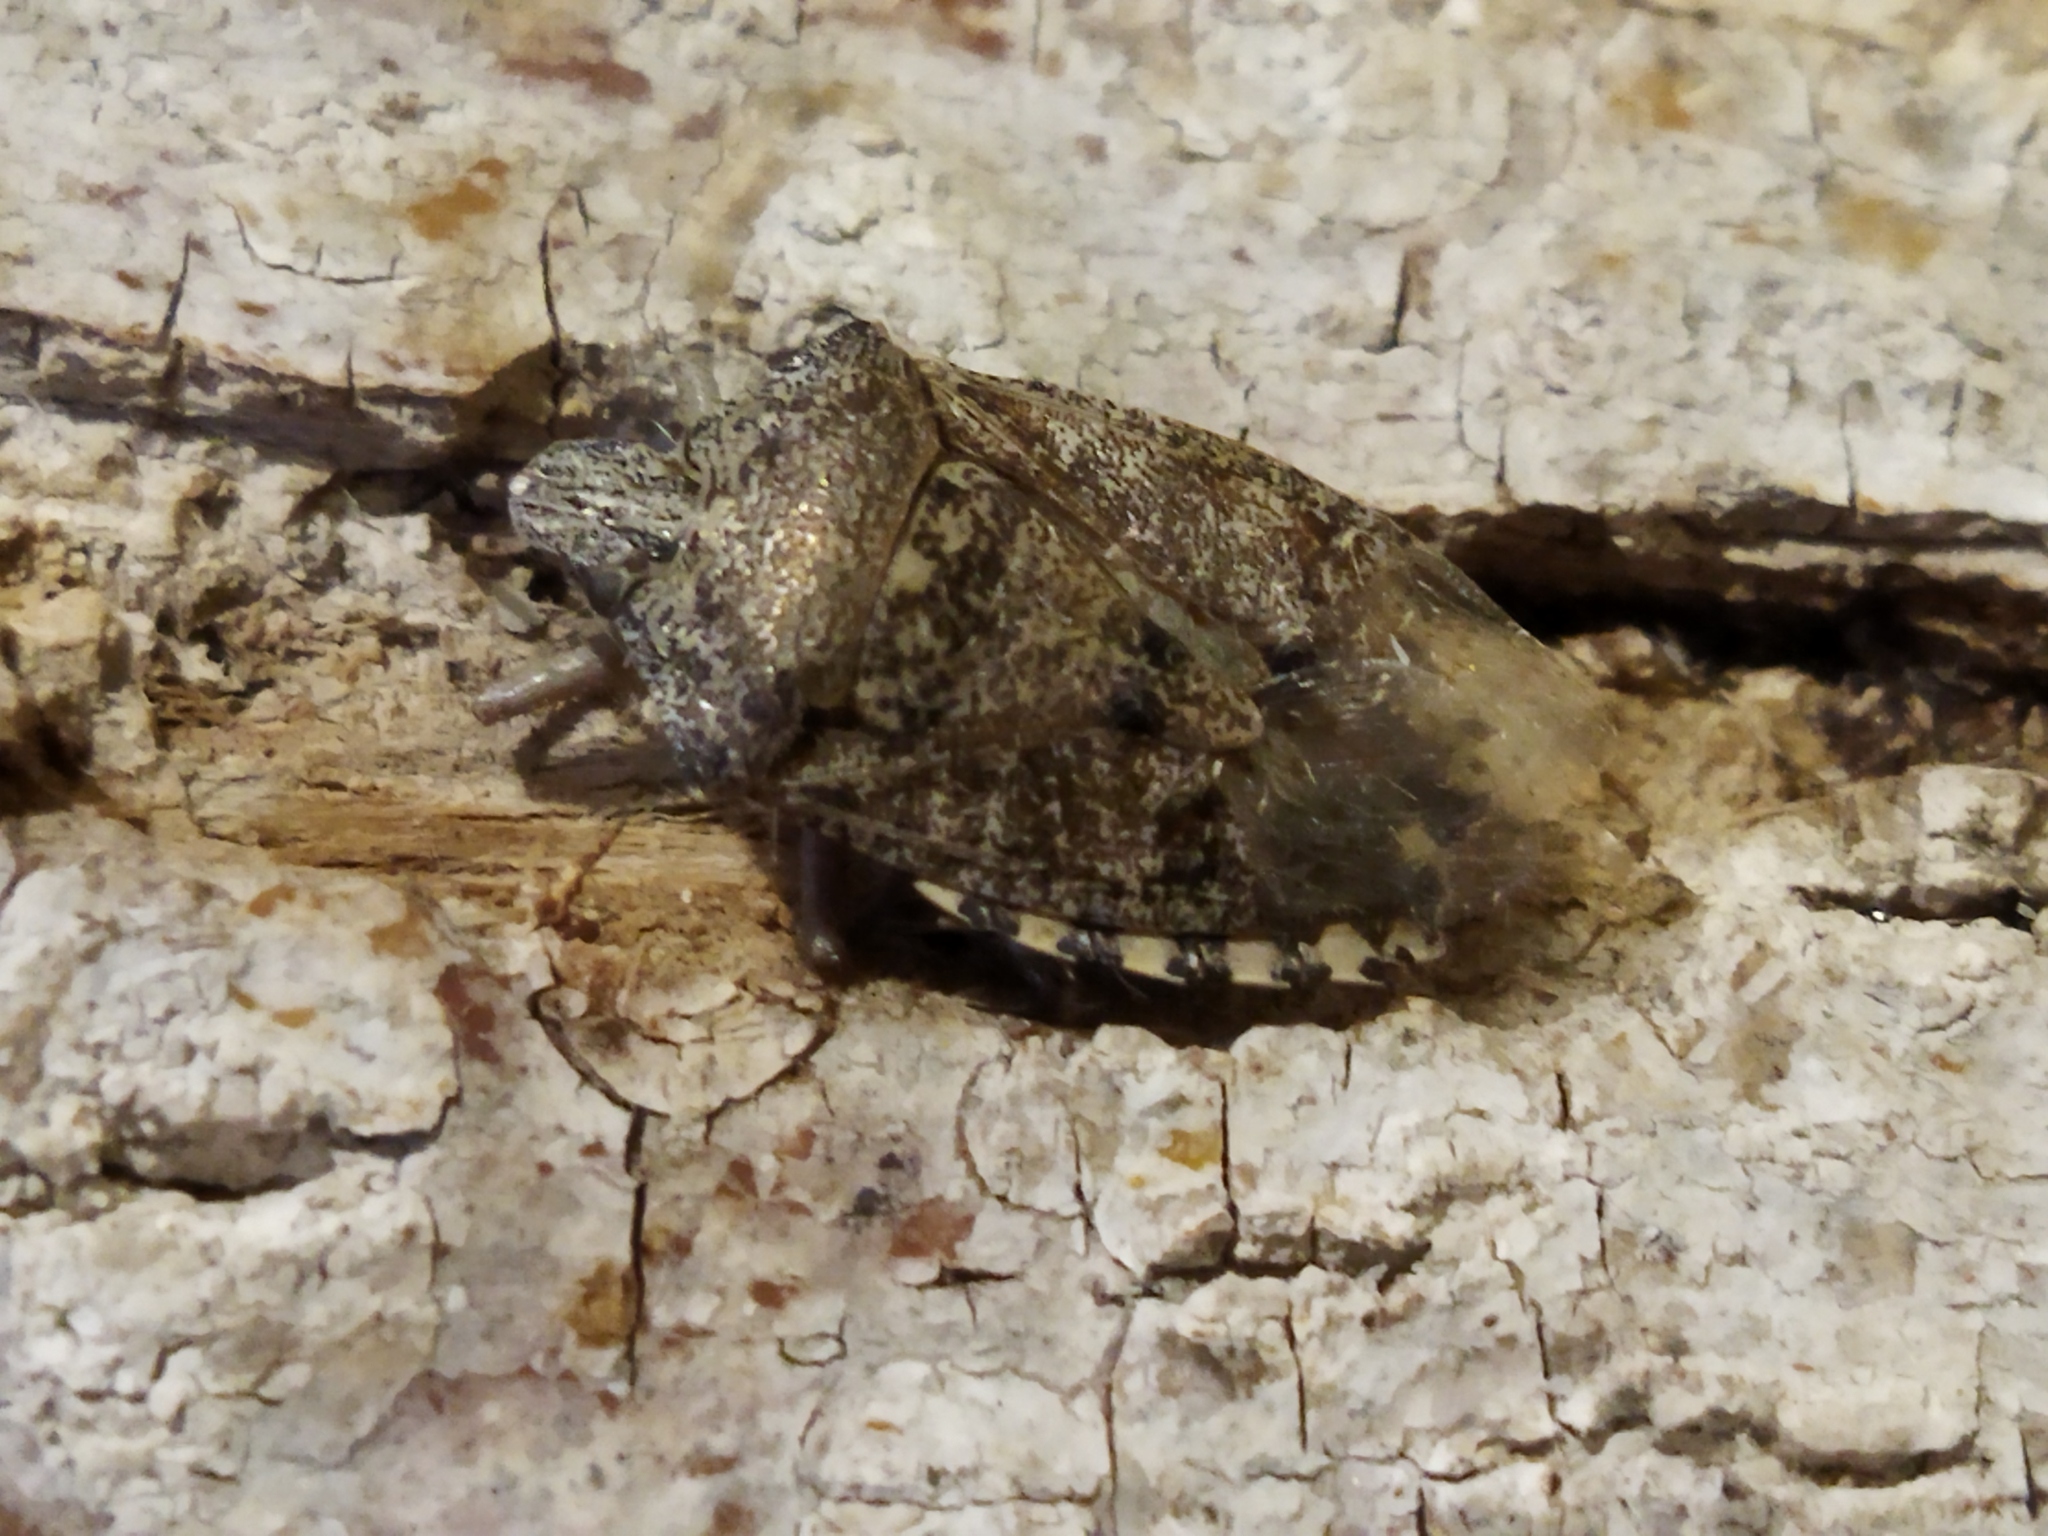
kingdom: Animalia
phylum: Arthropoda
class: Insecta
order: Hemiptera
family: Pentatomidae
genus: Rhaphigaster
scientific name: Rhaphigaster nebulosa
